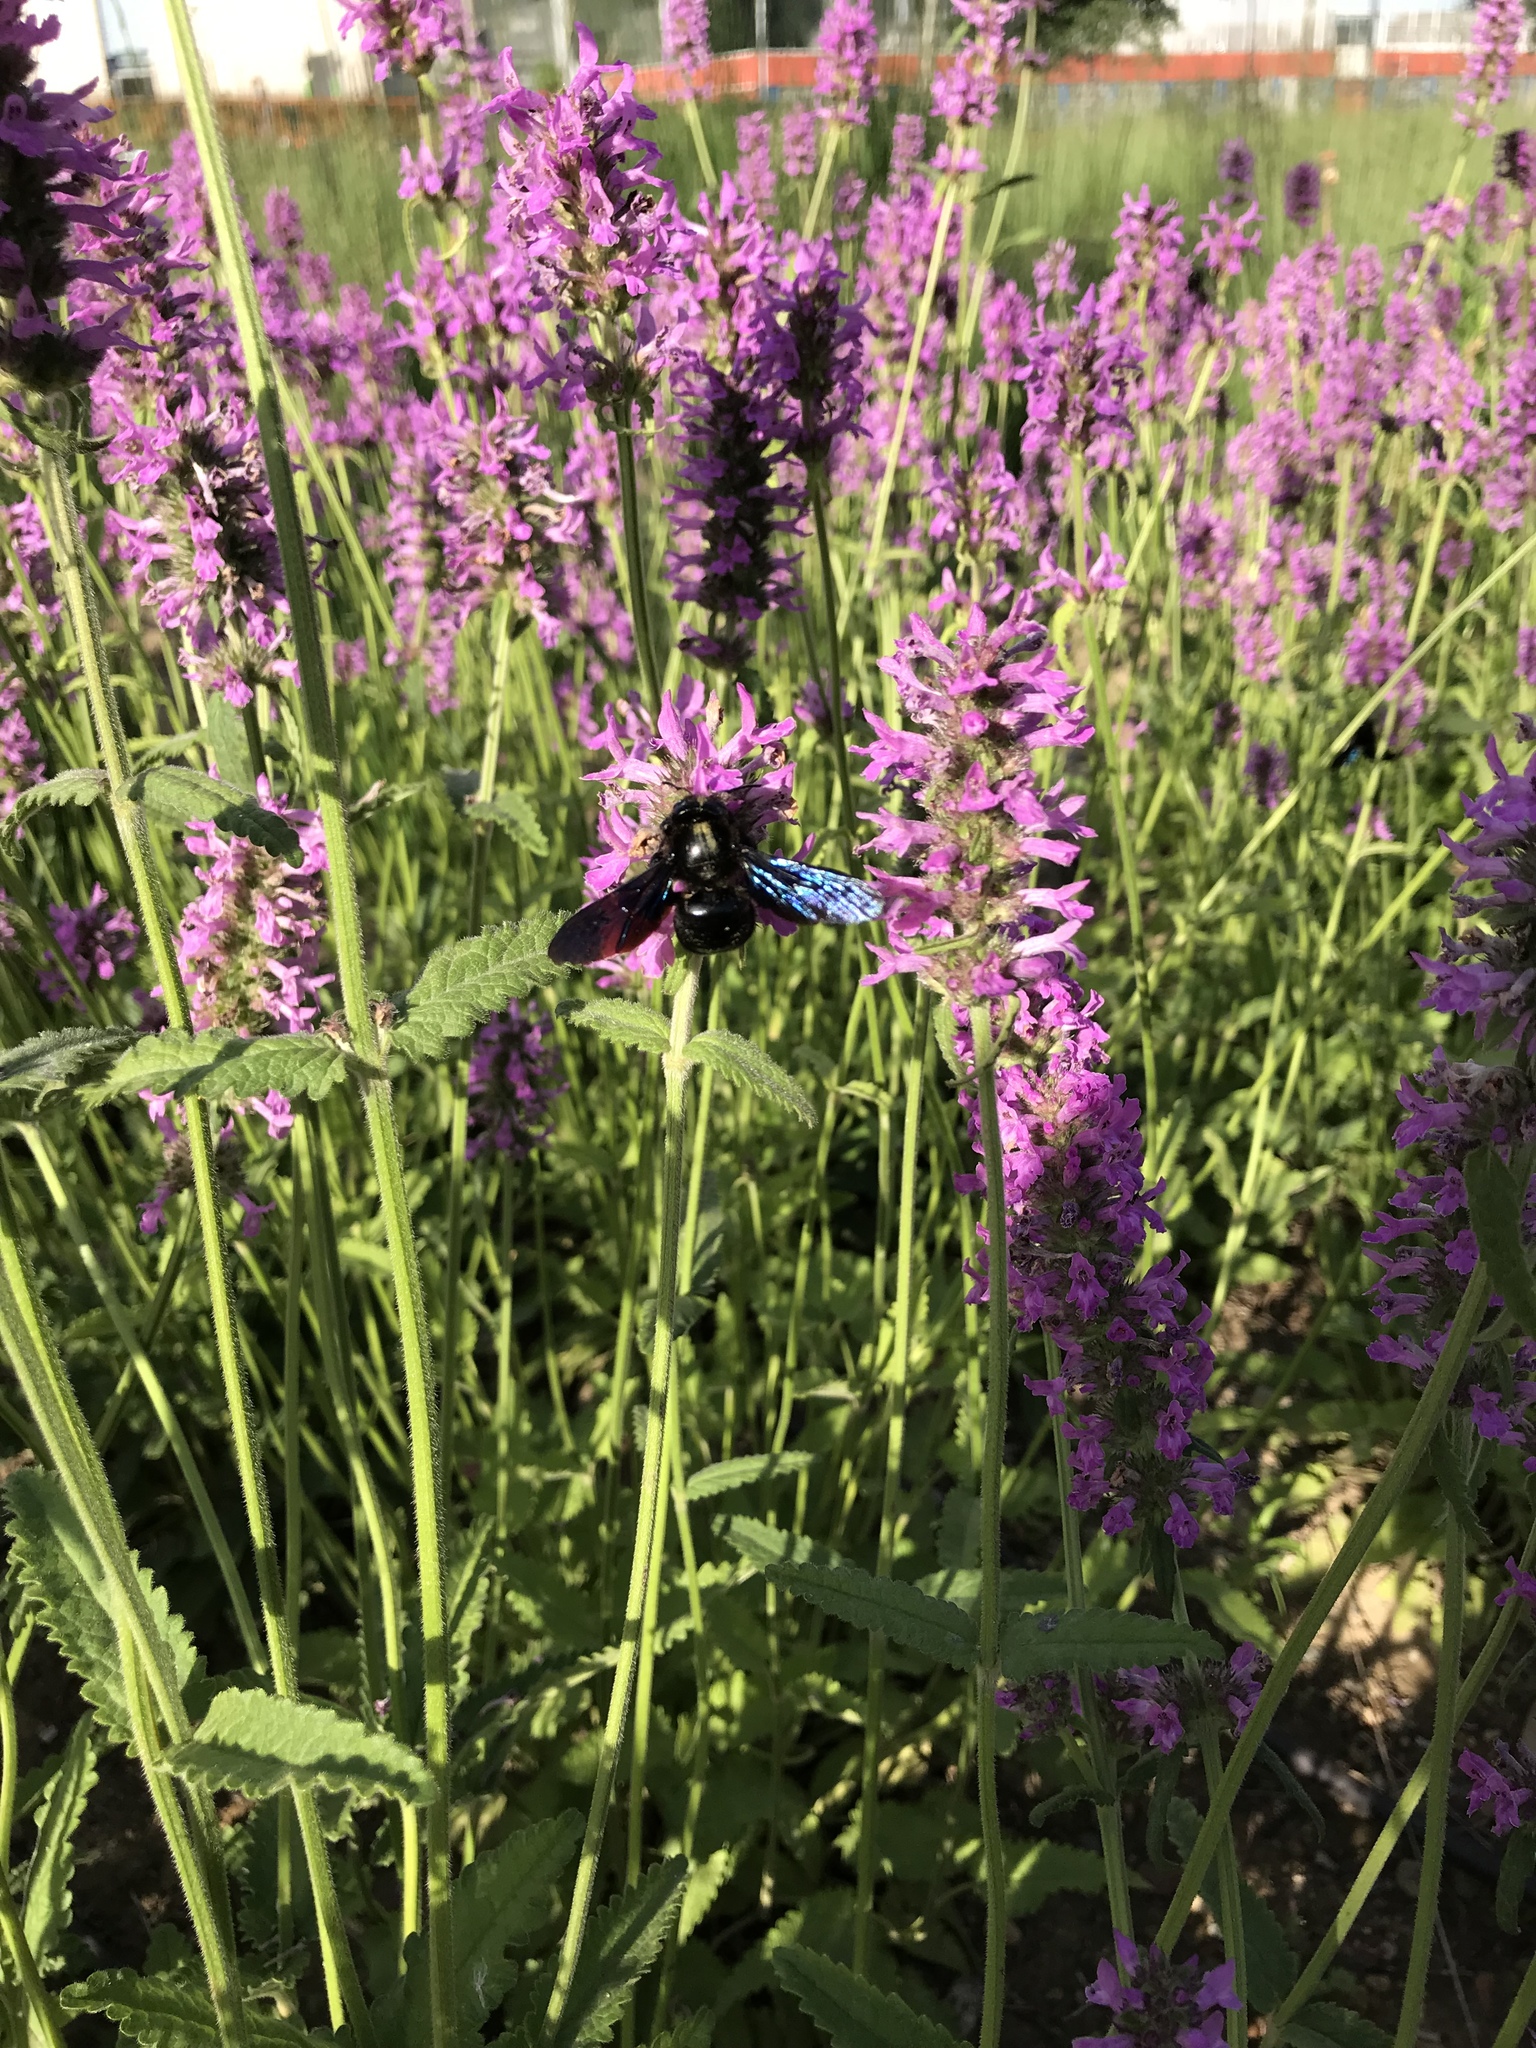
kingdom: Animalia
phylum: Arthropoda
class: Insecta
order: Hymenoptera
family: Apidae
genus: Xylocopa
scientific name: Xylocopa violacea
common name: Violet carpenter bee
